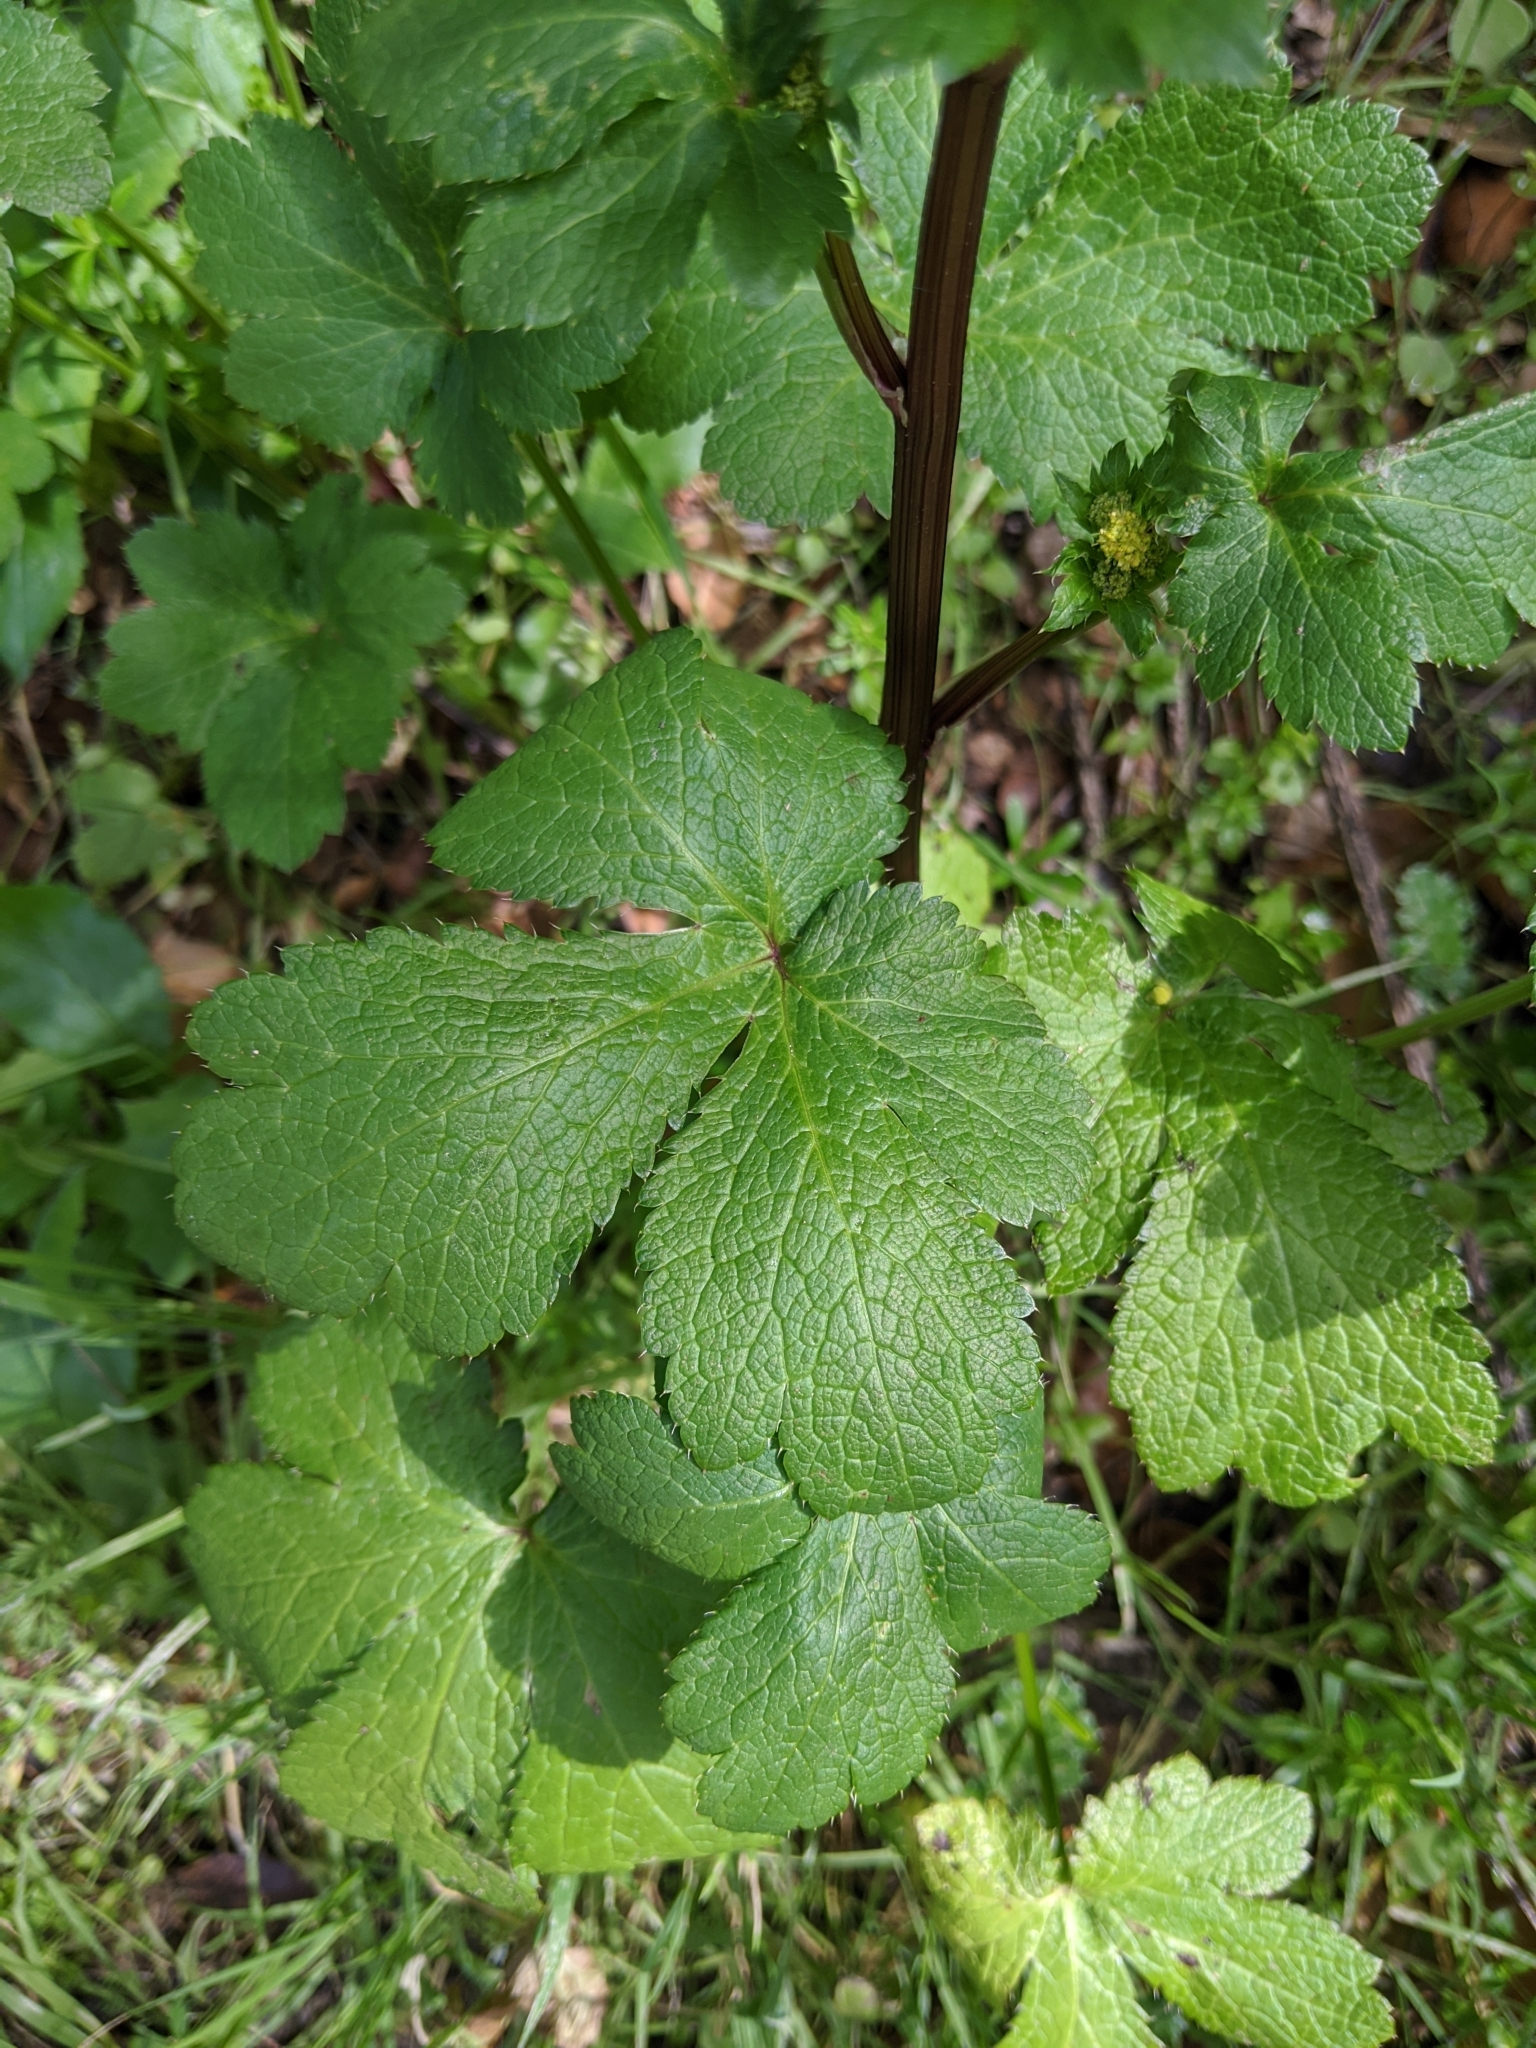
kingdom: Plantae
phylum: Tracheophyta
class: Magnoliopsida
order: Apiales
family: Apiaceae
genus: Sanicula
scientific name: Sanicula crassicaulis
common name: Western snakeroot
